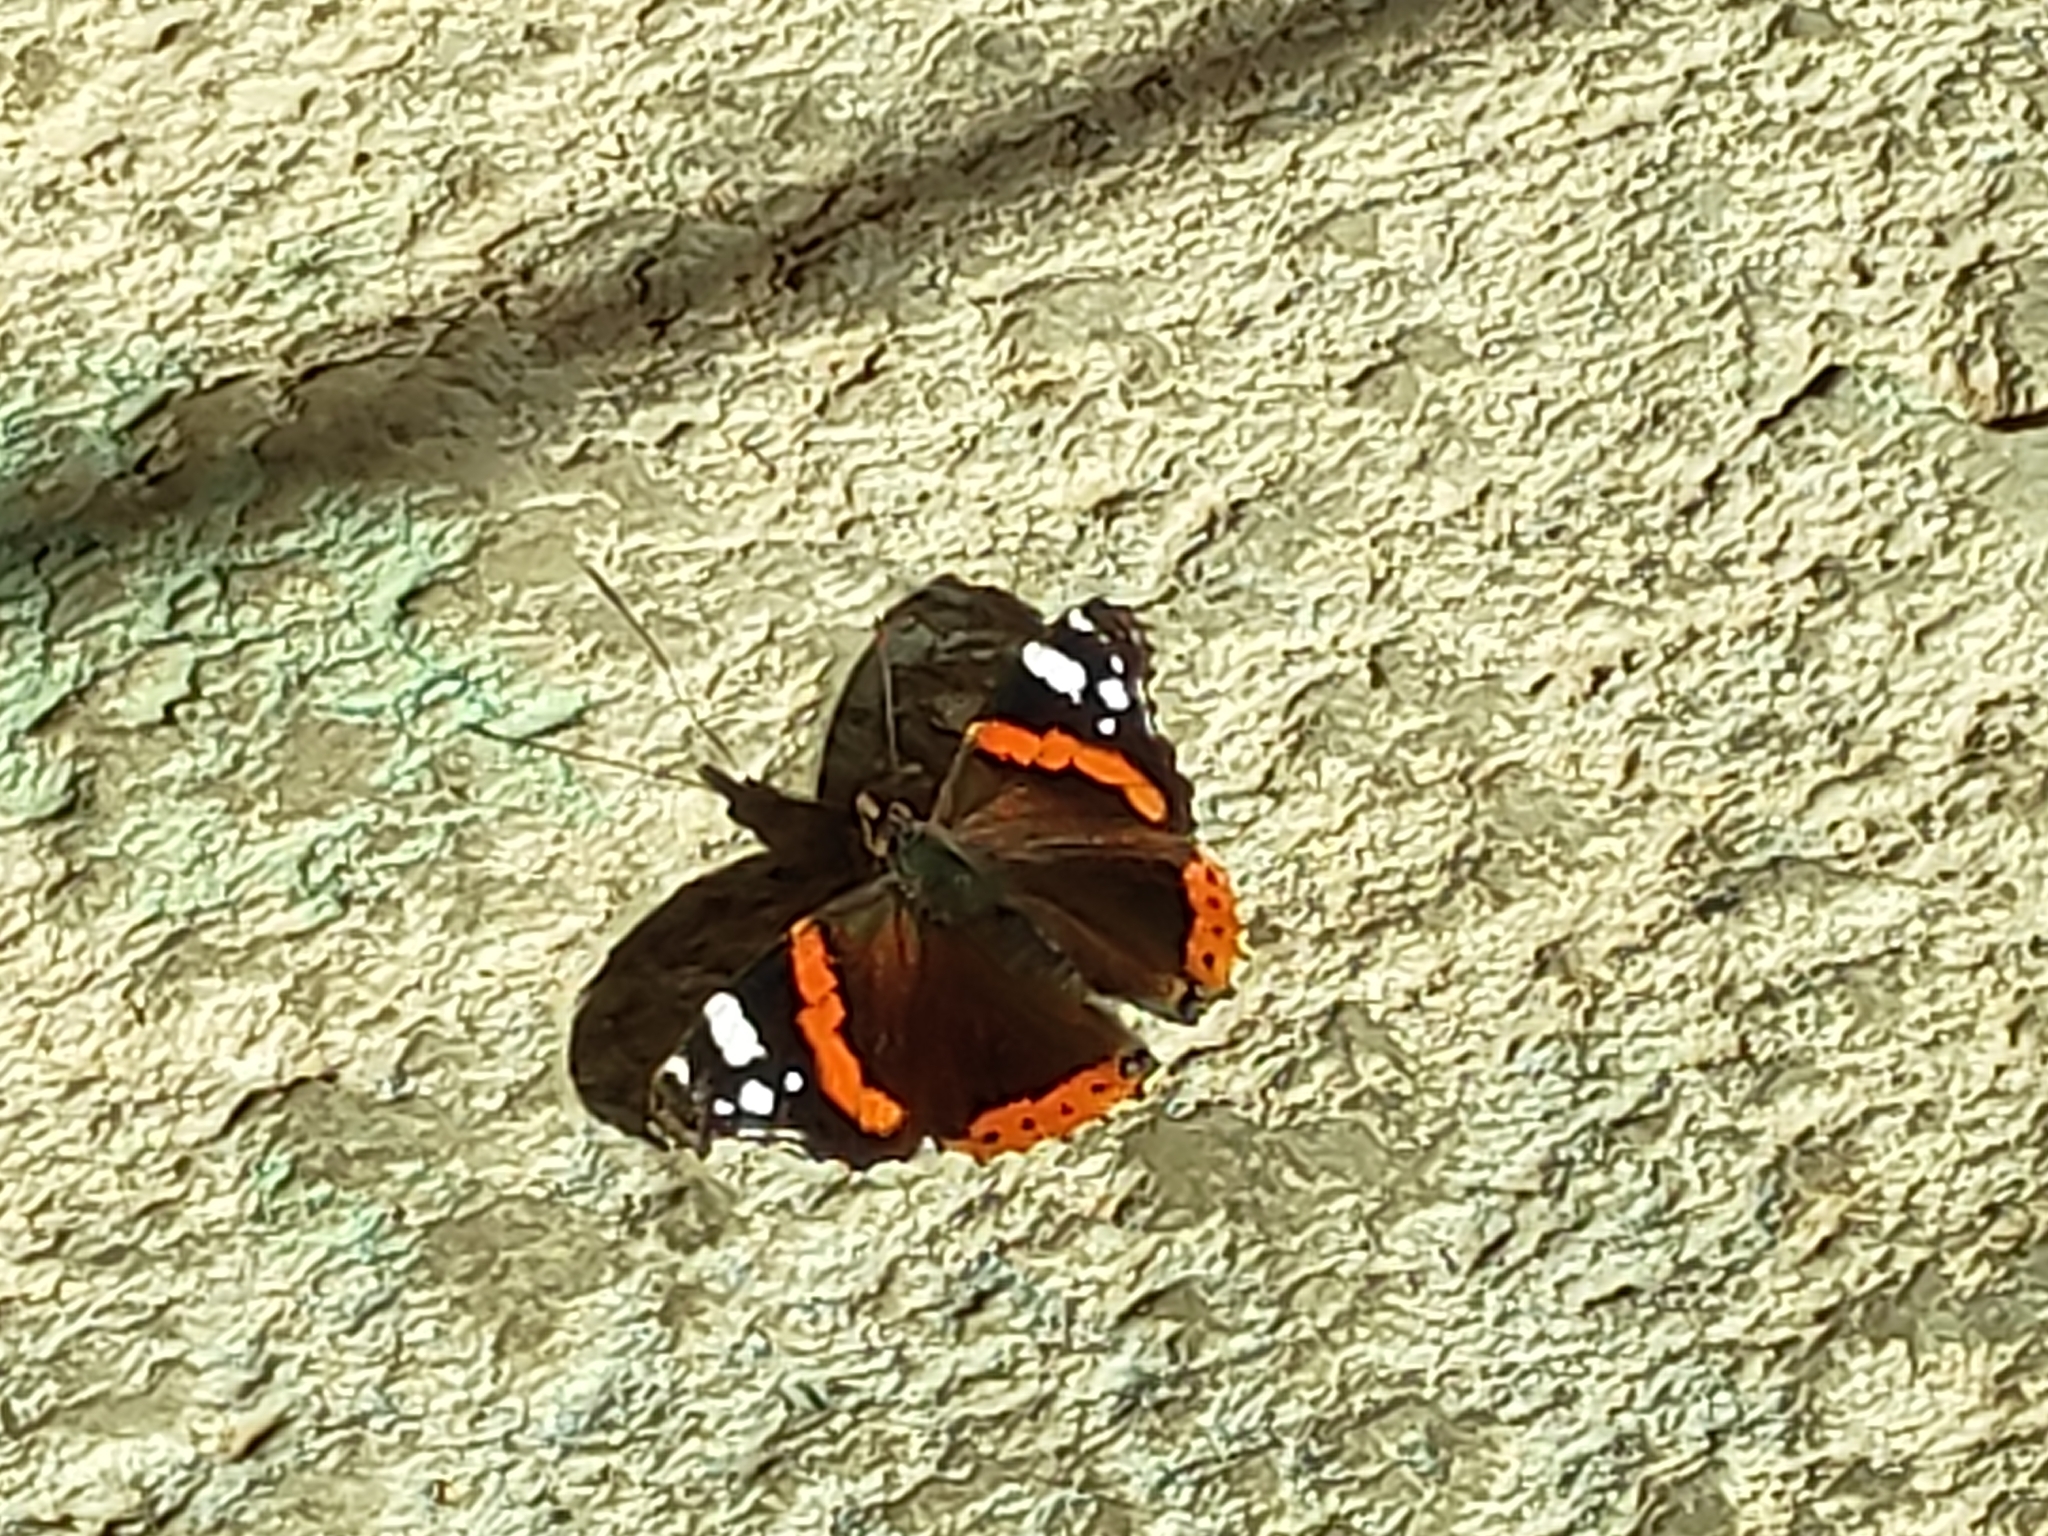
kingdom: Animalia
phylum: Arthropoda
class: Insecta
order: Lepidoptera
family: Nymphalidae
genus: Vanessa
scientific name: Vanessa atalanta
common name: Red admiral
